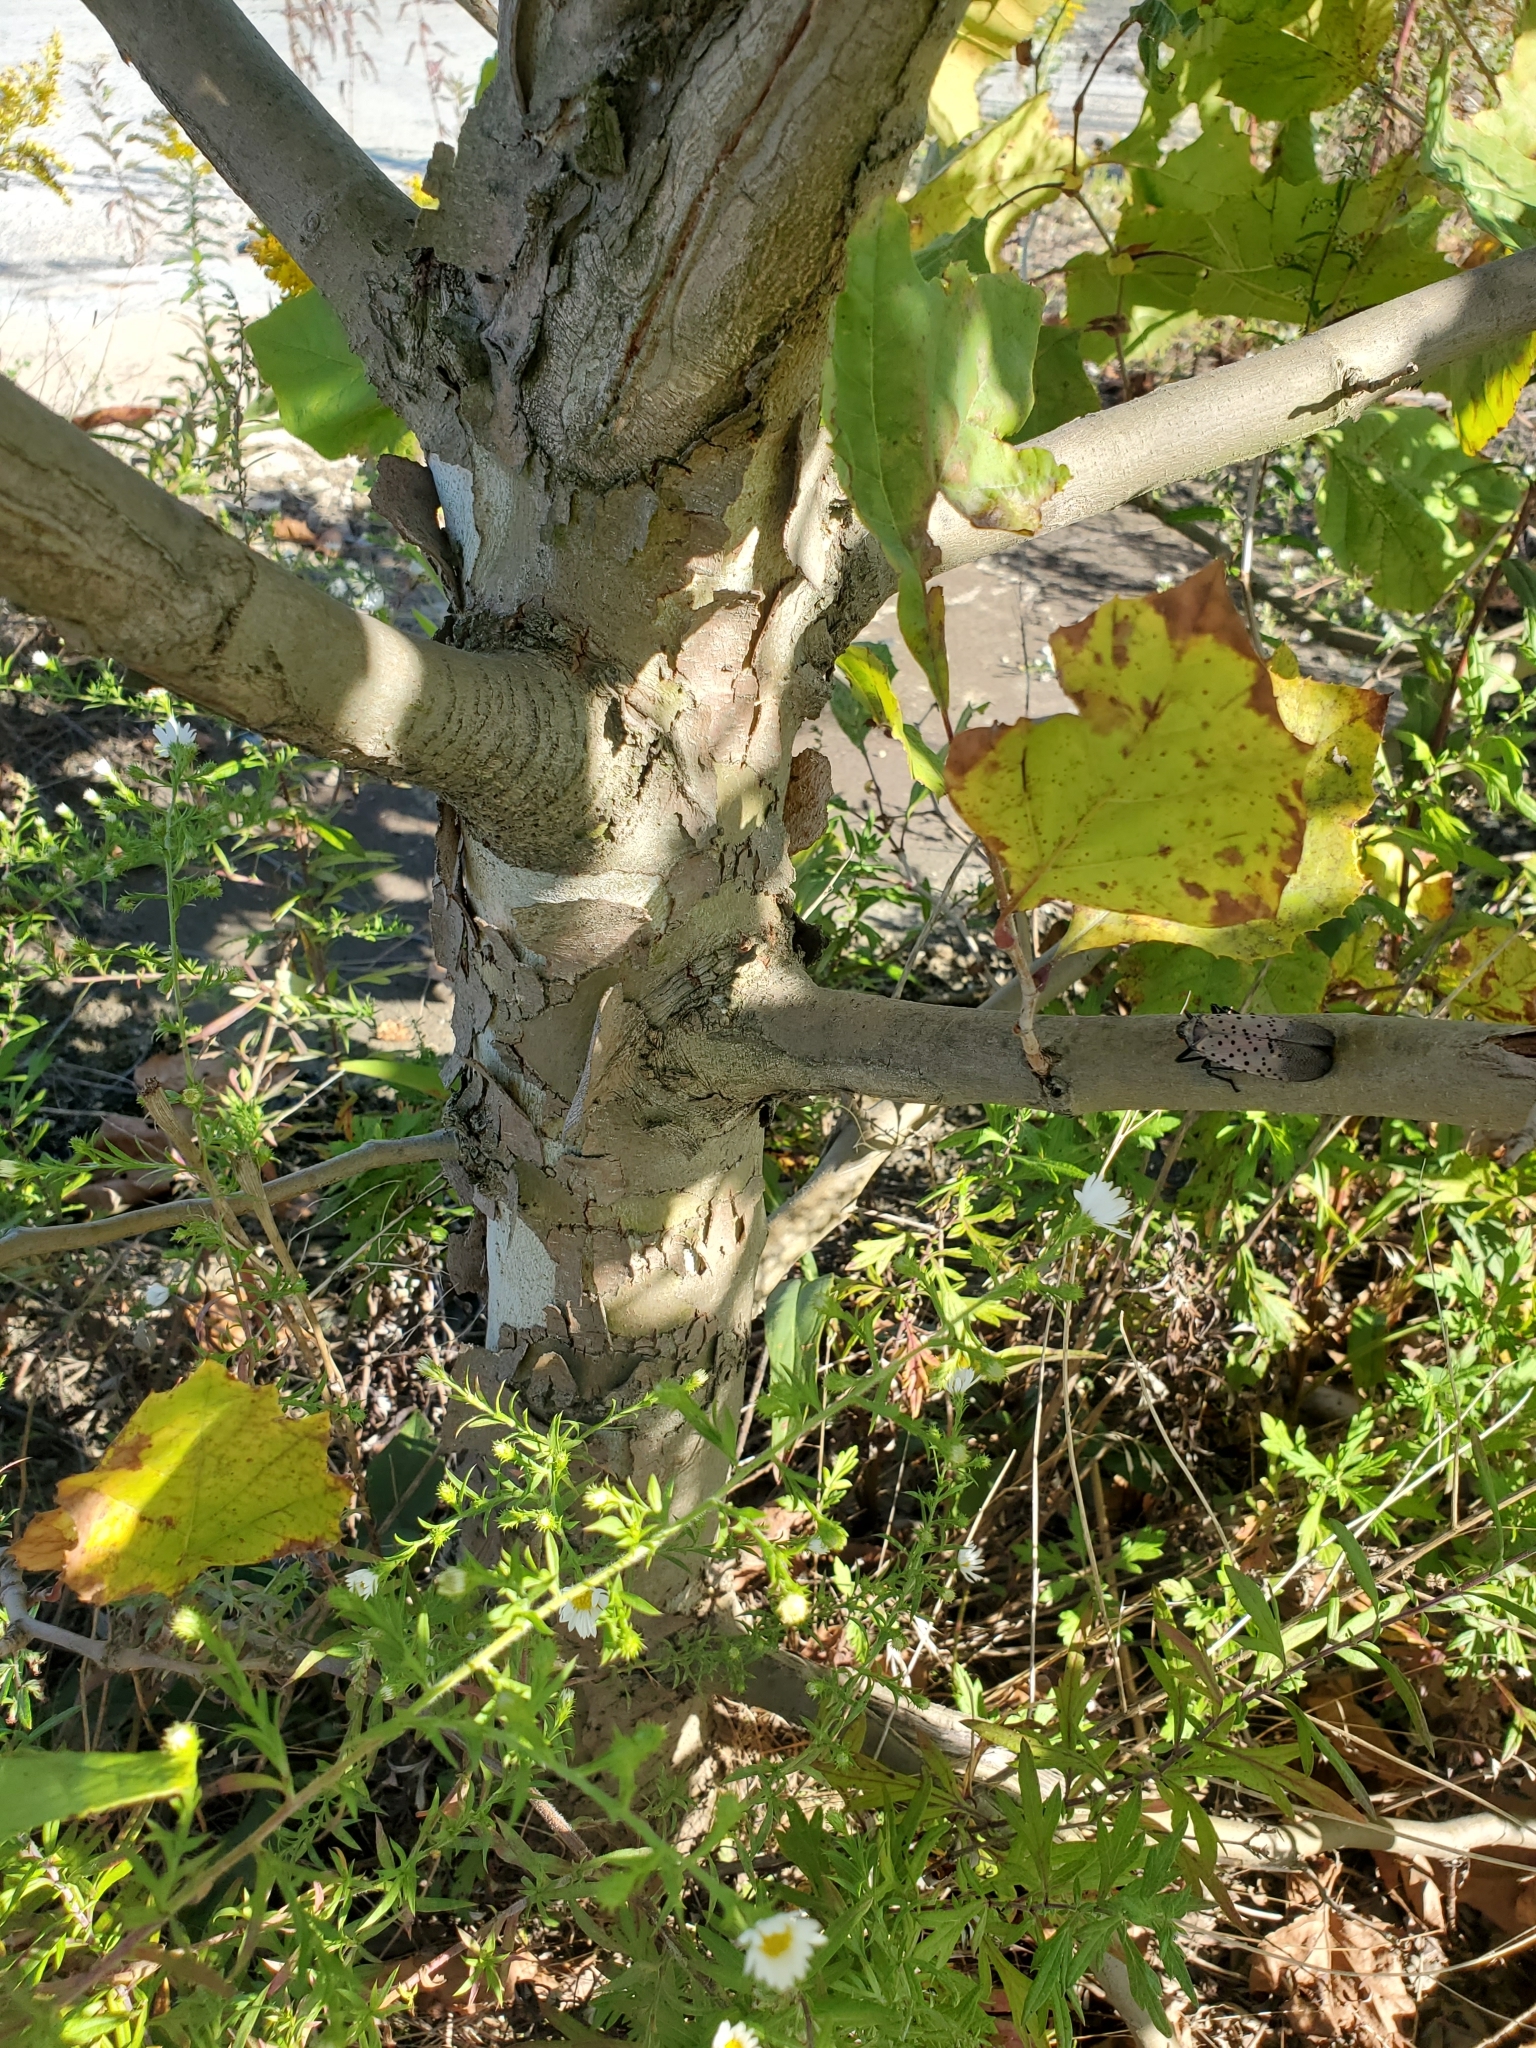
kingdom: Plantae
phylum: Tracheophyta
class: Magnoliopsida
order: Proteales
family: Platanaceae
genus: Platanus
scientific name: Platanus occidentalis
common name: American sycamore
